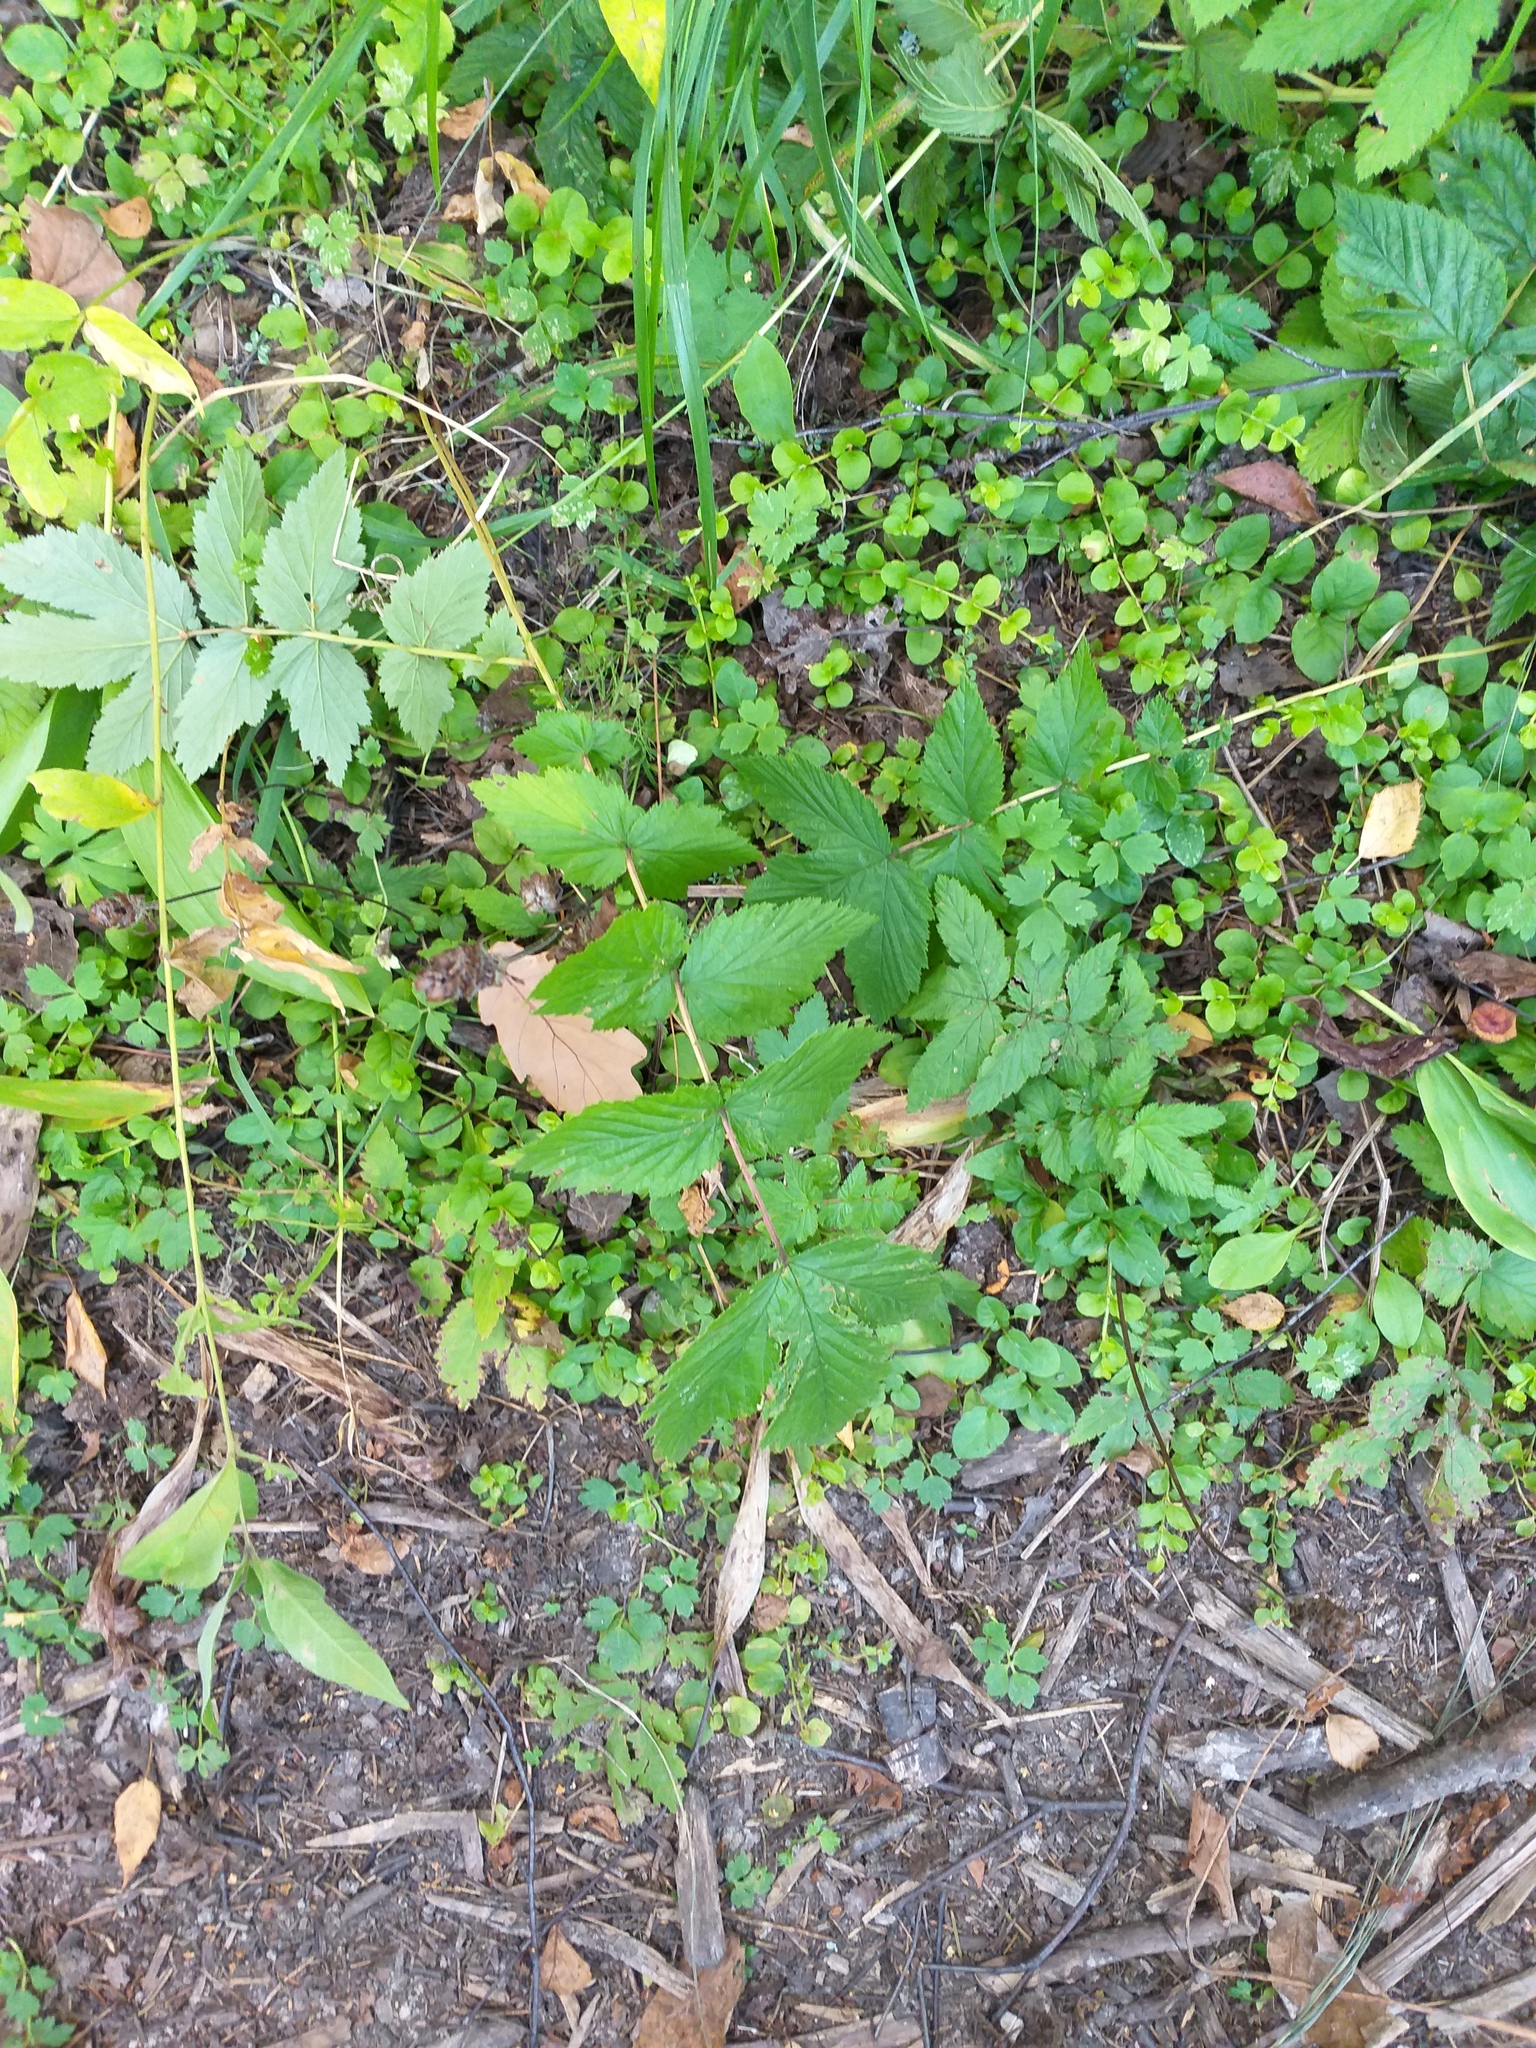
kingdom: Plantae
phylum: Tracheophyta
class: Magnoliopsida
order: Rosales
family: Rosaceae
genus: Filipendula
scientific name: Filipendula ulmaria
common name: Meadowsweet
